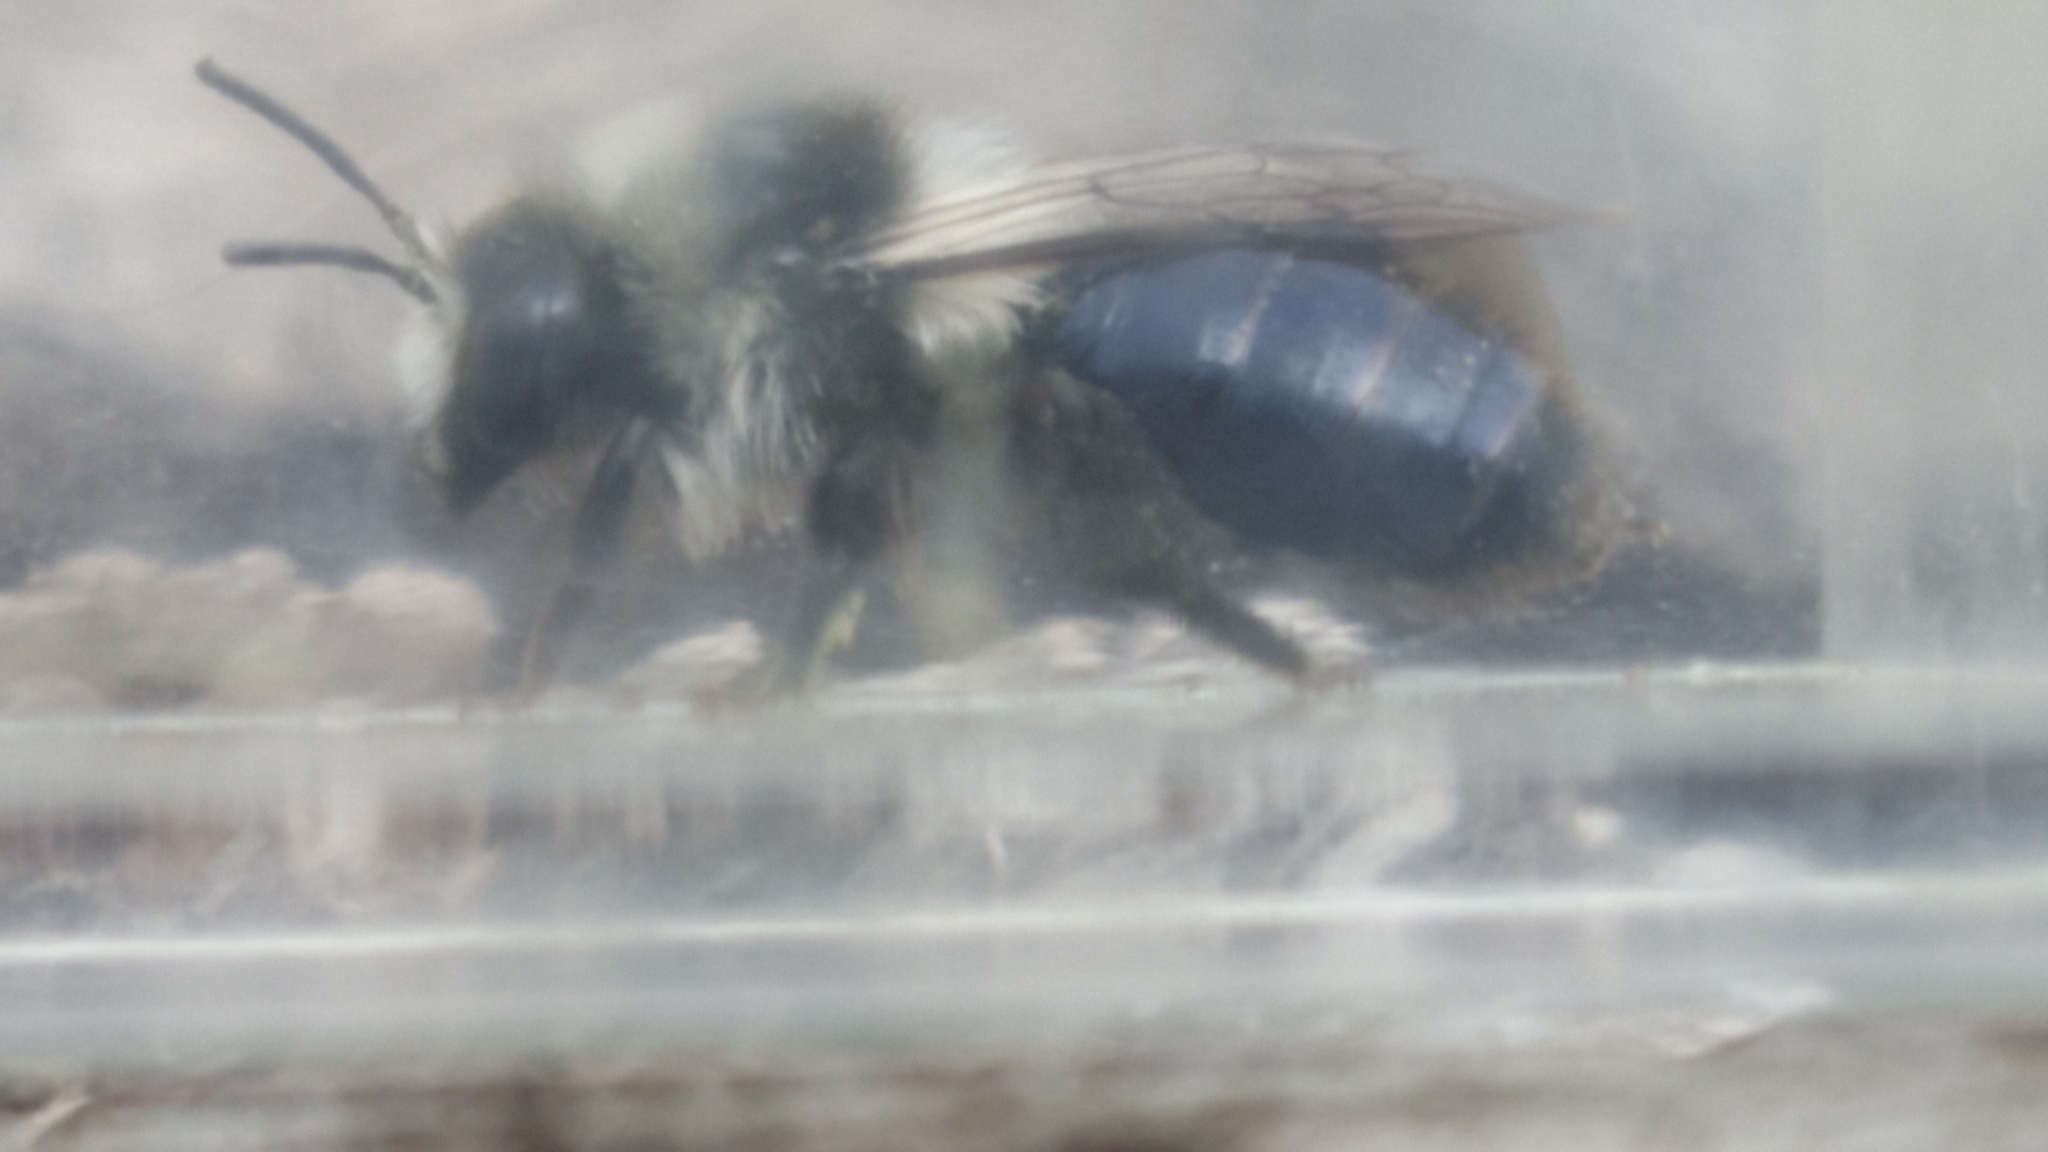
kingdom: Animalia
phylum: Arthropoda
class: Insecta
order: Hymenoptera
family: Andrenidae
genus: Andrena
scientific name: Andrena cineraria
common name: Ashy mining bee
